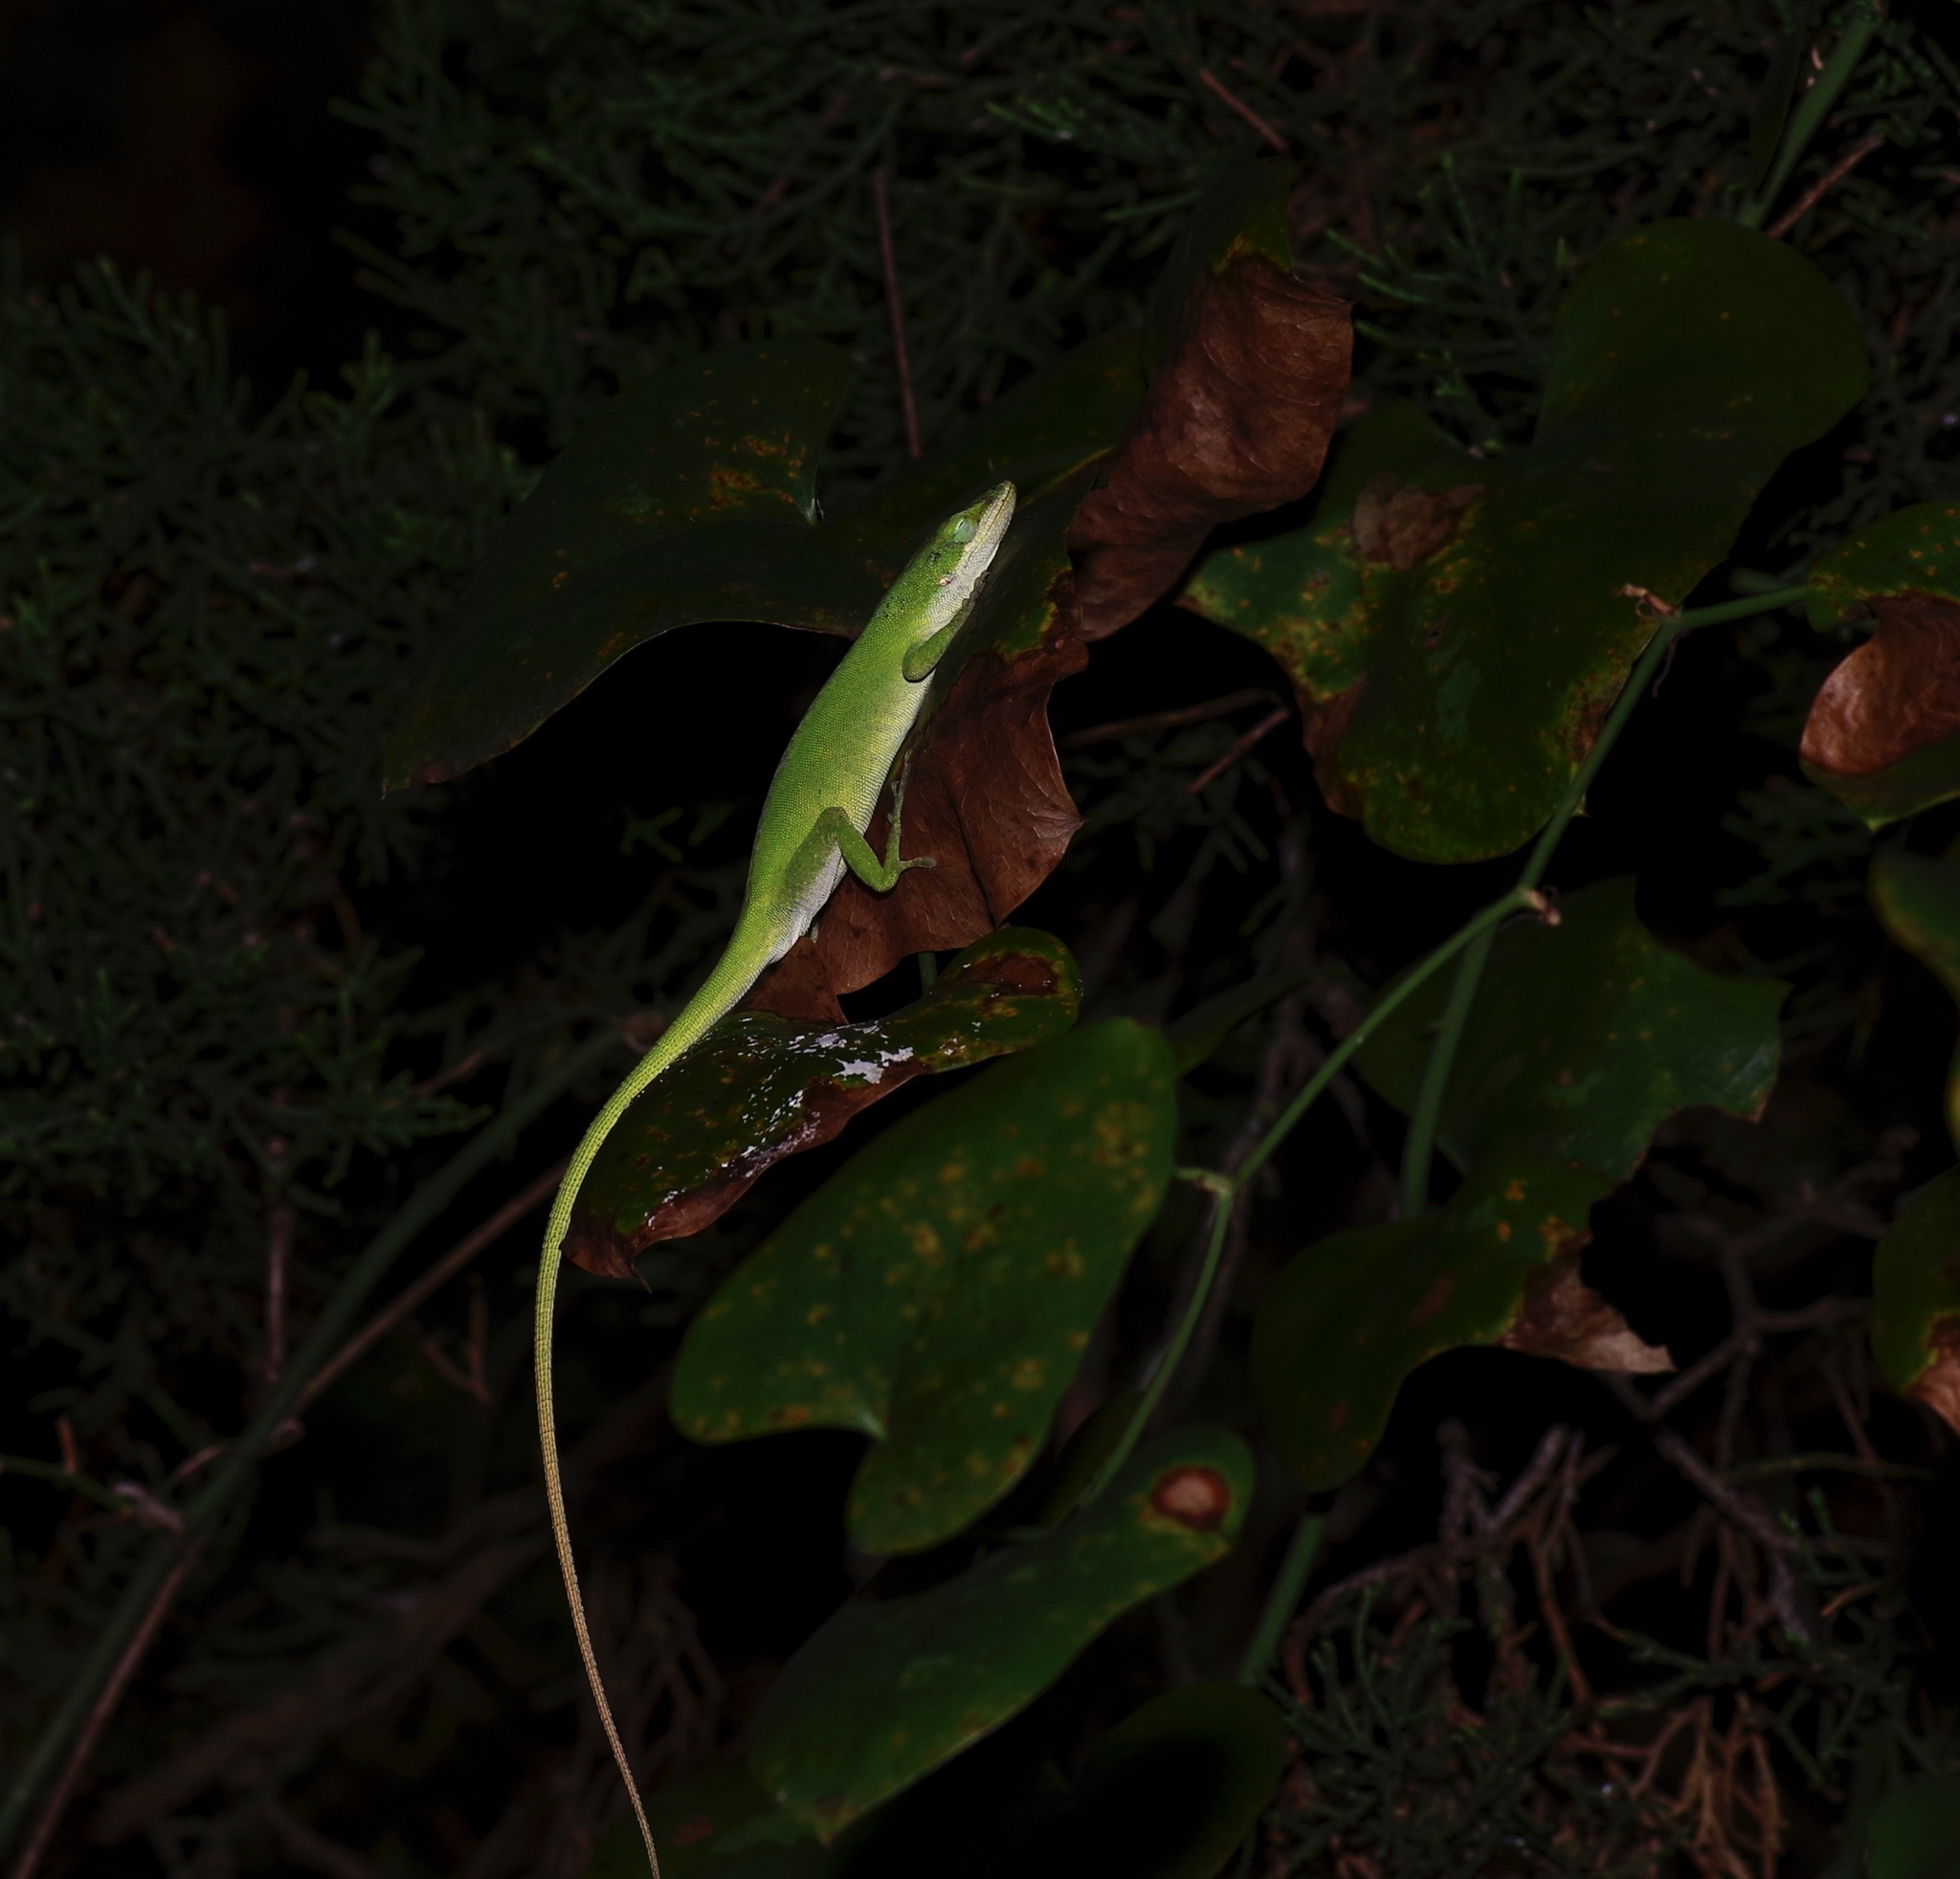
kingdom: Animalia
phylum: Chordata
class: Squamata
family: Dactyloidae
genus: Anolis
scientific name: Anolis carolinensis
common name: Green anole
